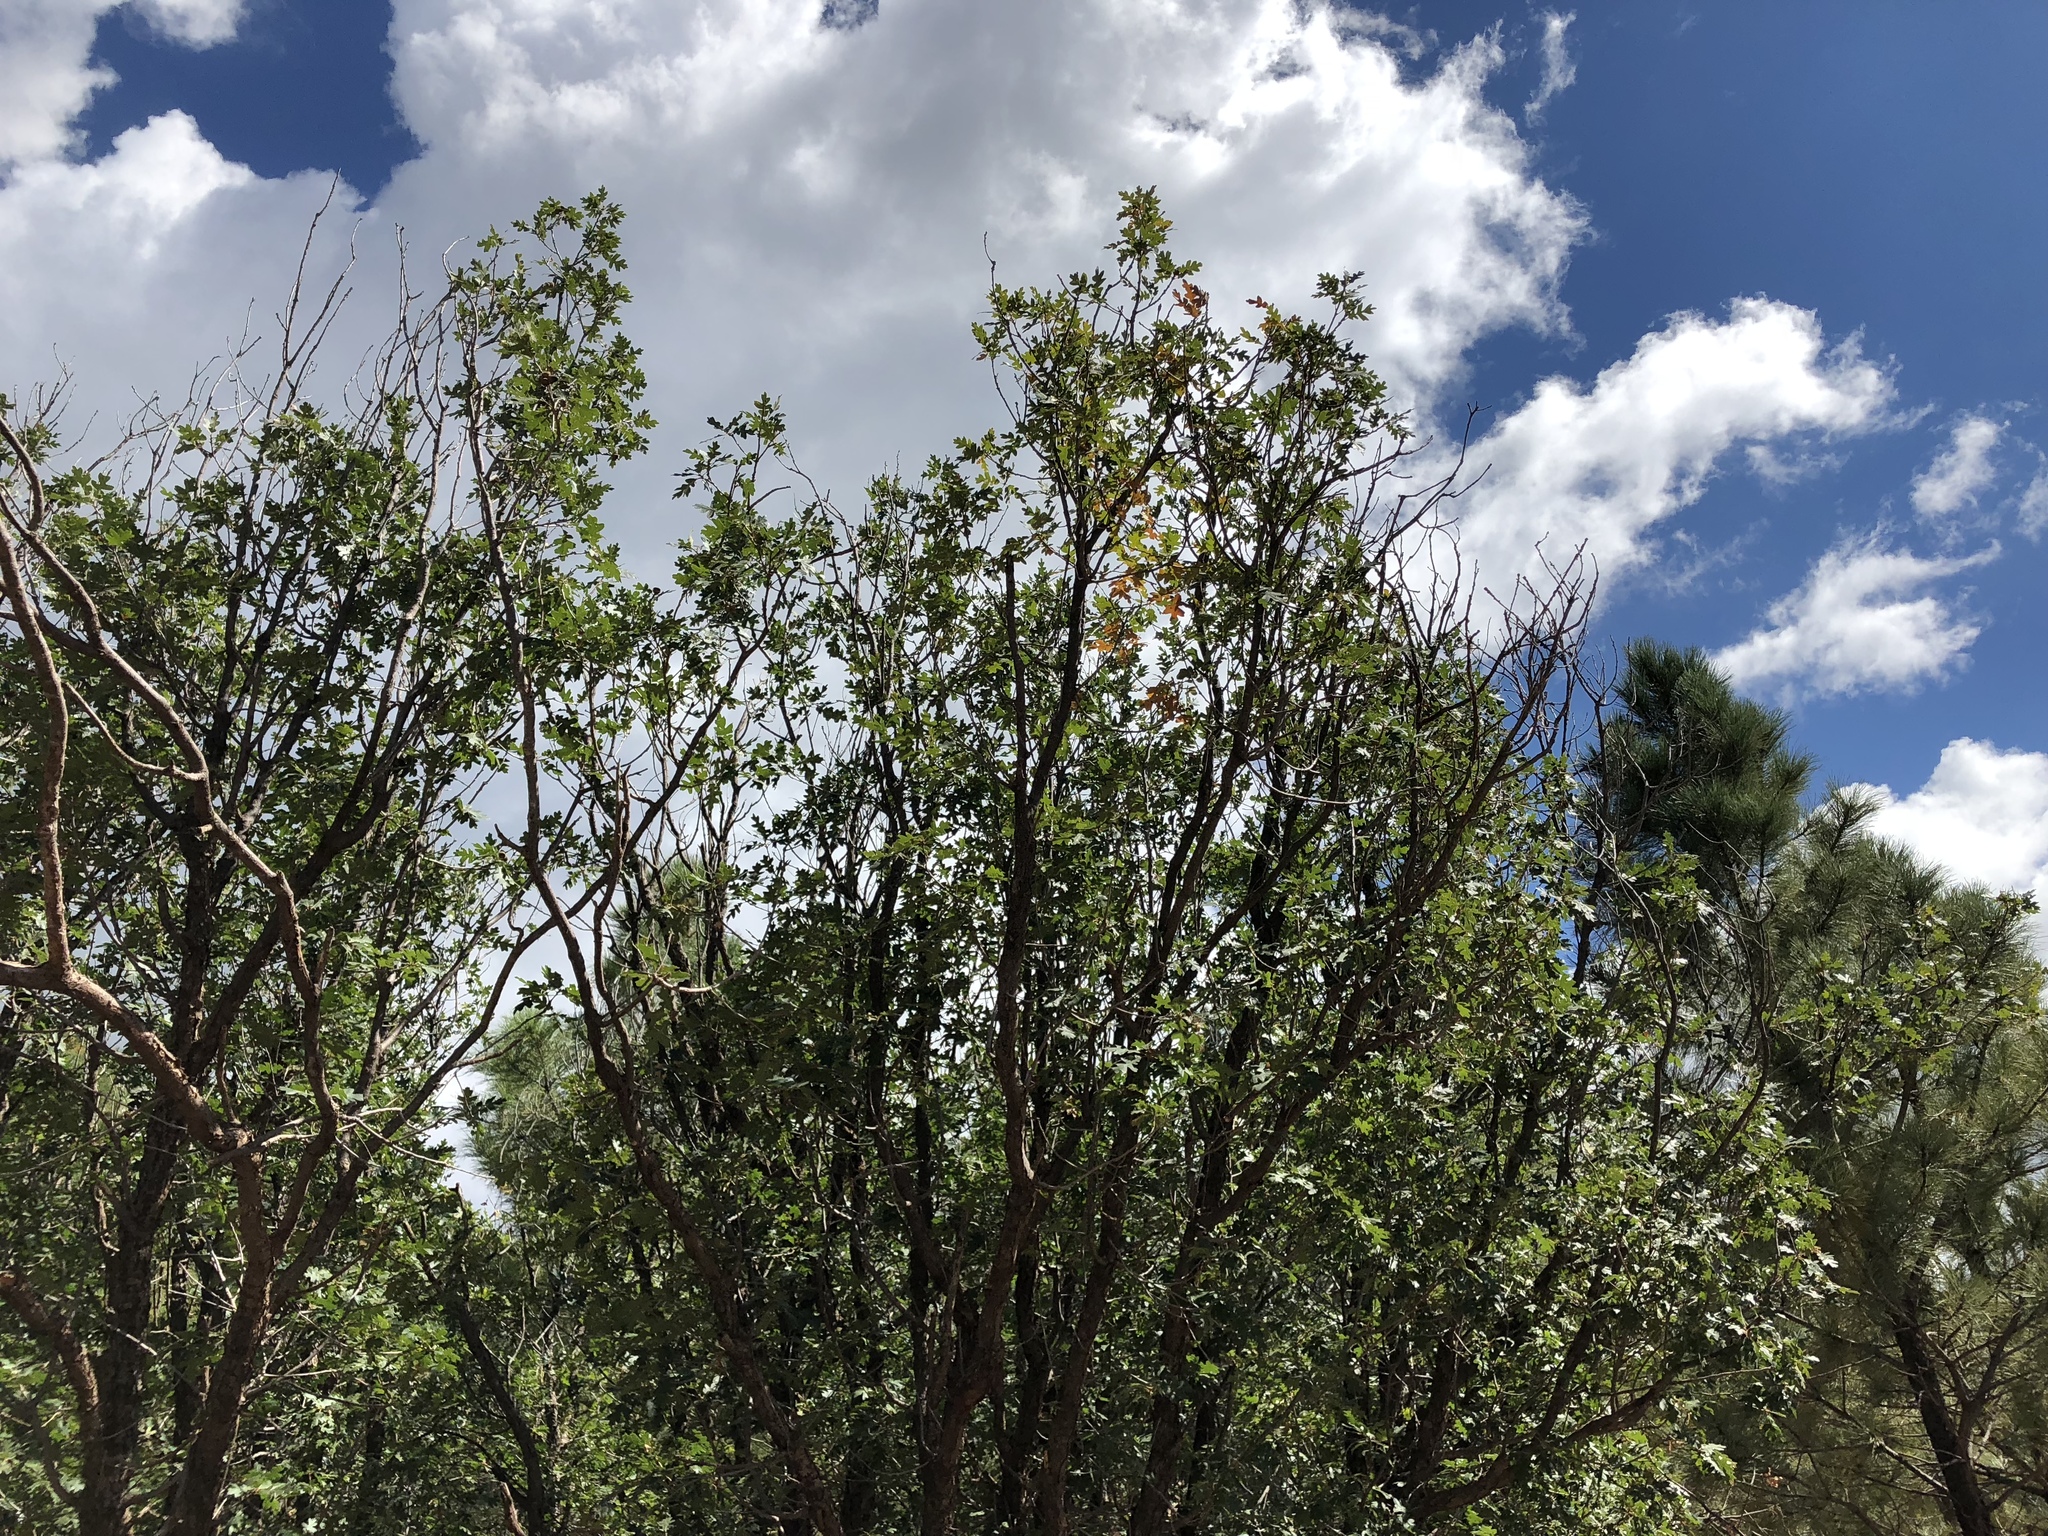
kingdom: Plantae
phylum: Tracheophyta
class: Magnoliopsida
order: Fagales
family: Fagaceae
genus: Quercus
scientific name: Quercus gambelii
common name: Gambel oak
